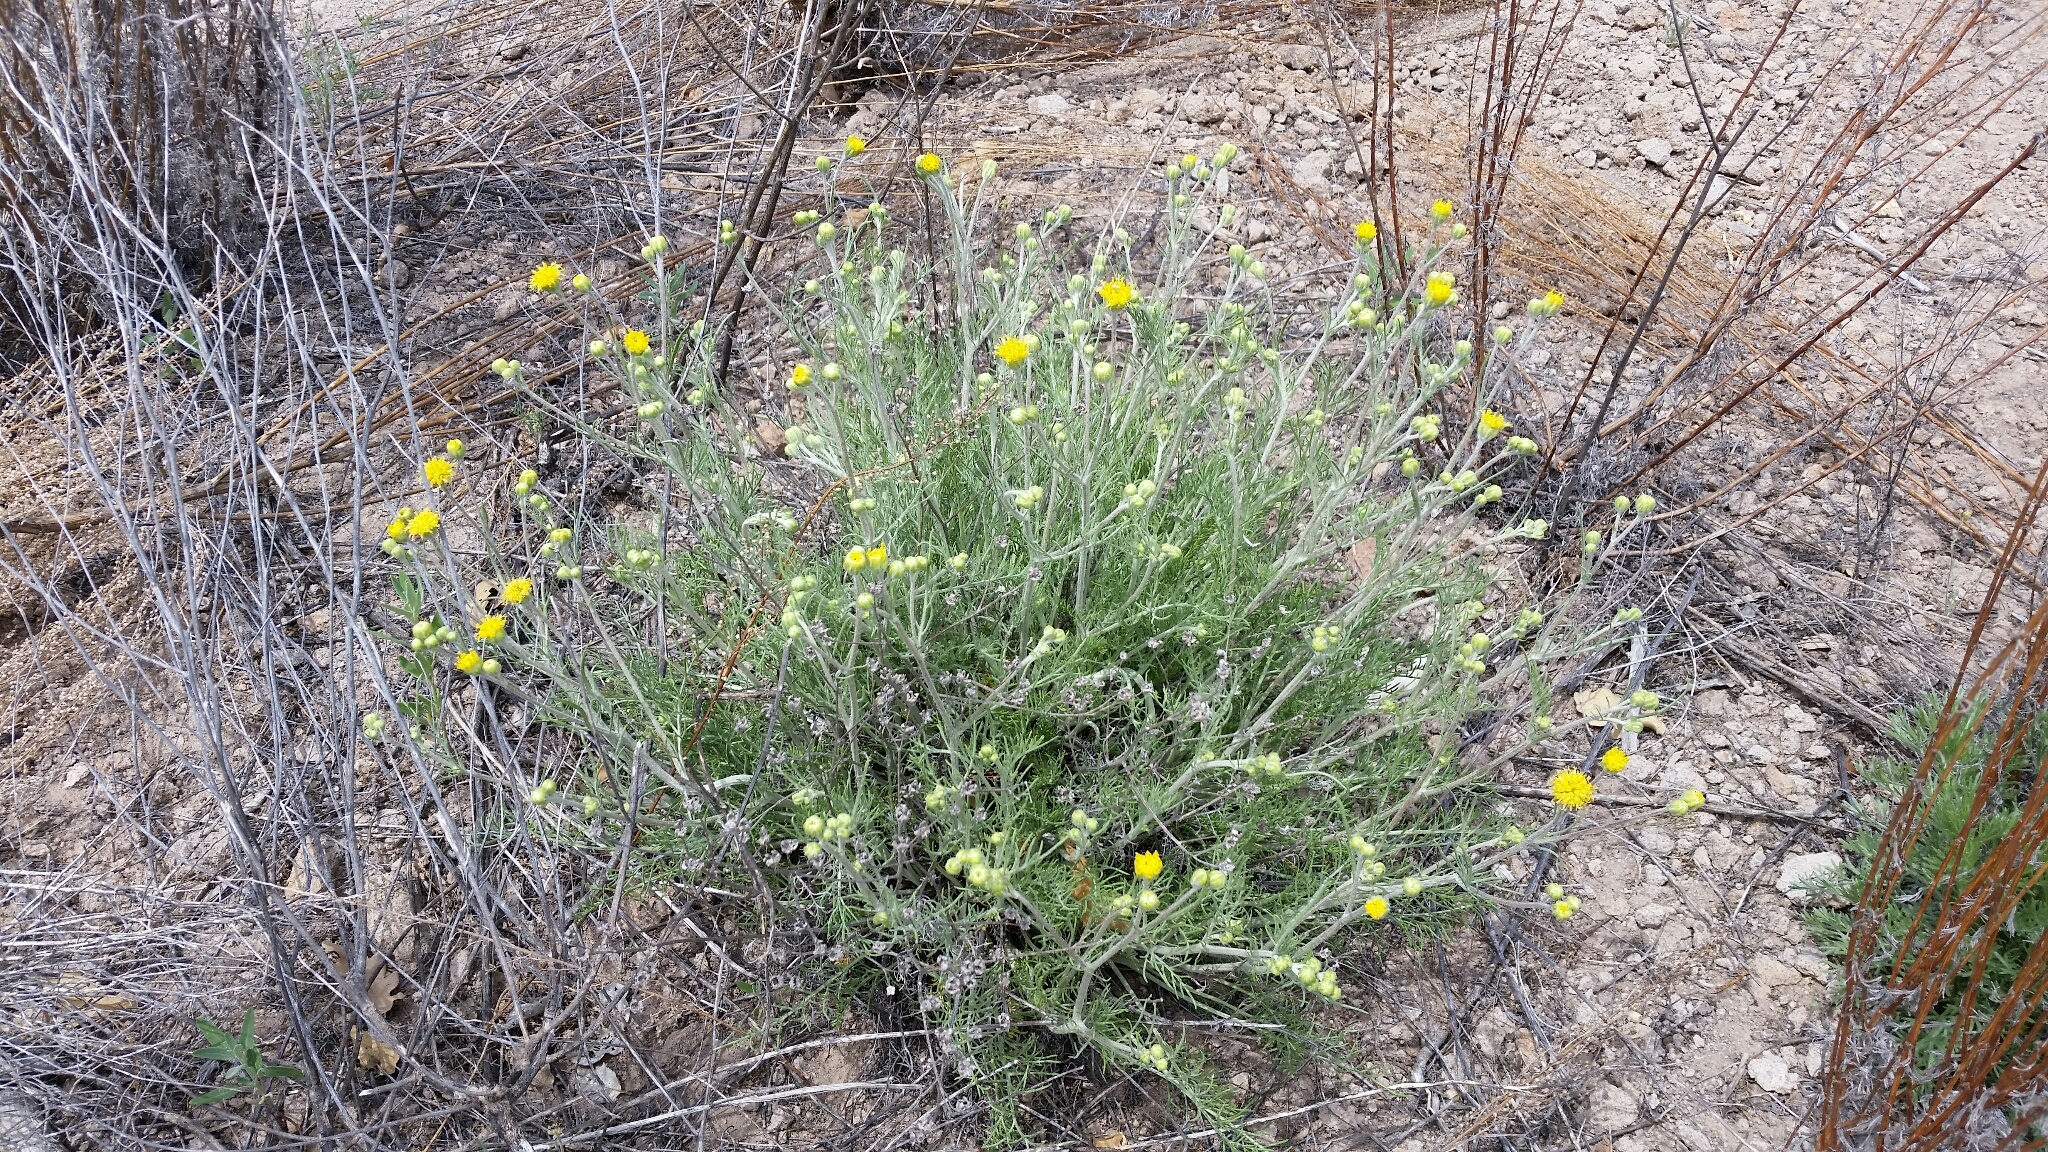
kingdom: Plantae
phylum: Tracheophyta
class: Magnoliopsida
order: Asterales
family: Asteraceae
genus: Hymenopappus
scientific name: Hymenopappus filifolius
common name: Columbia cutleaf
